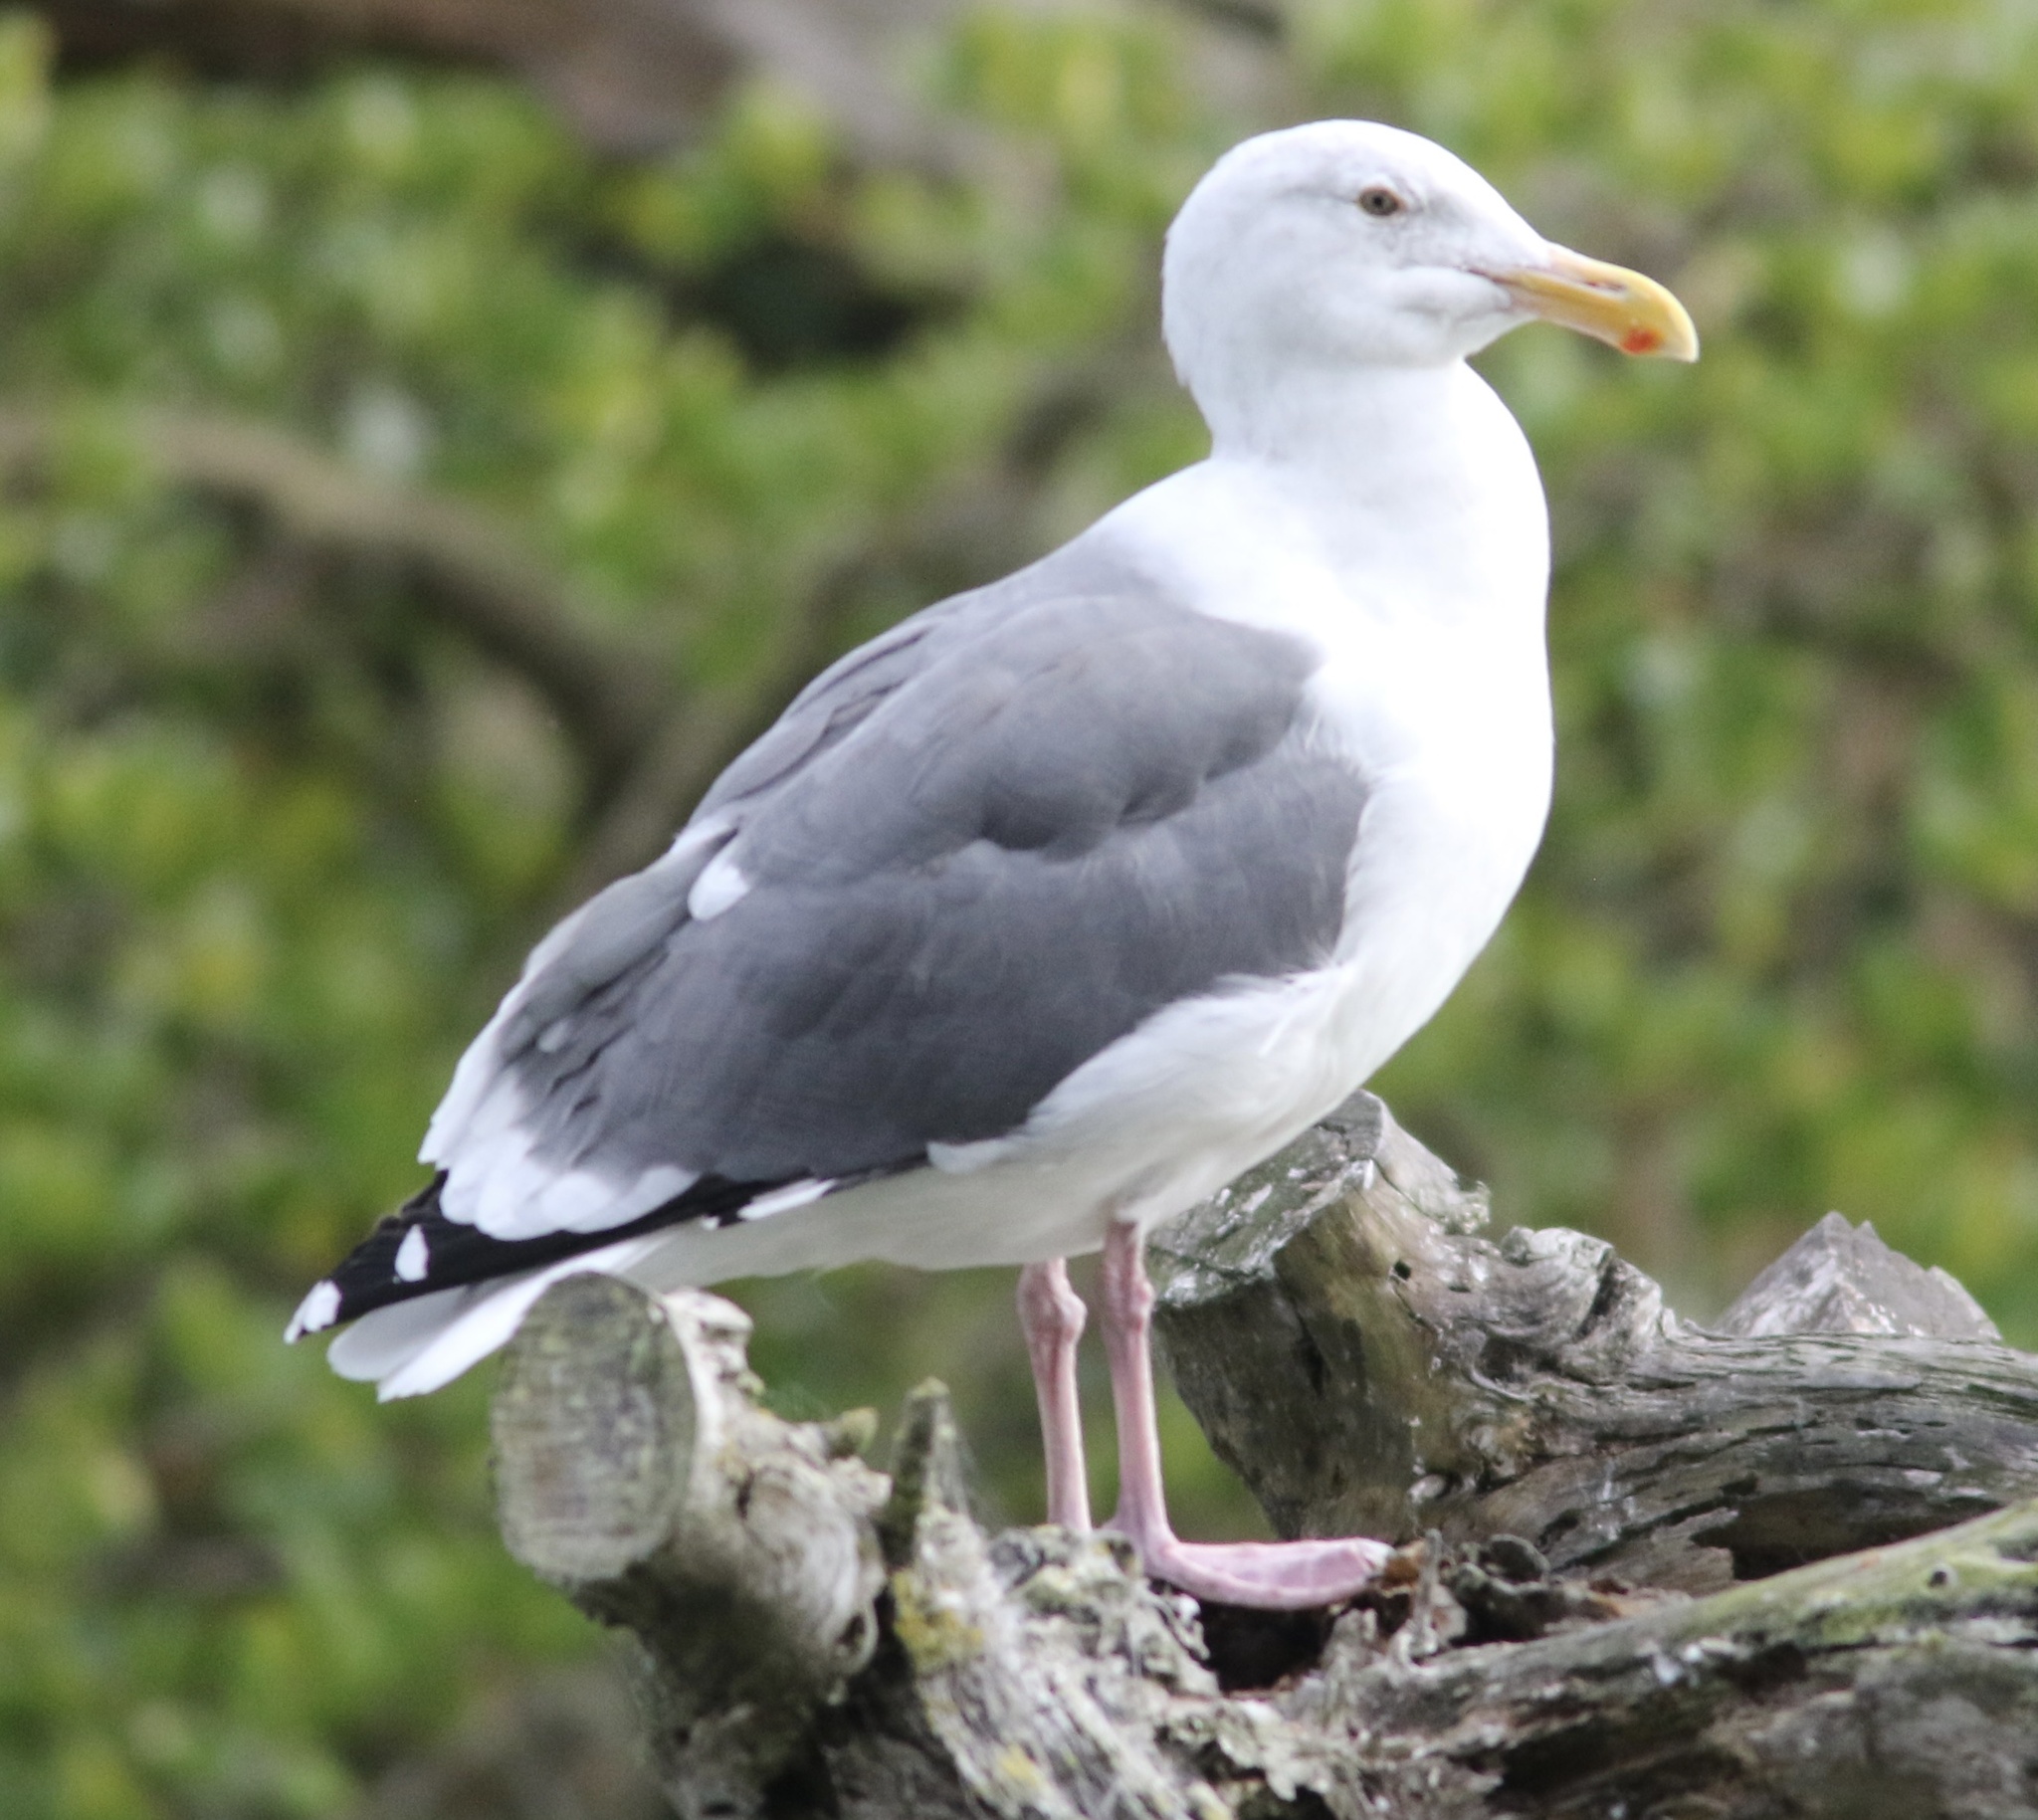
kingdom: Animalia
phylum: Chordata
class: Aves
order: Charadriiformes
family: Laridae
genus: Larus
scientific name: Larus occidentalis
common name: Western gull
